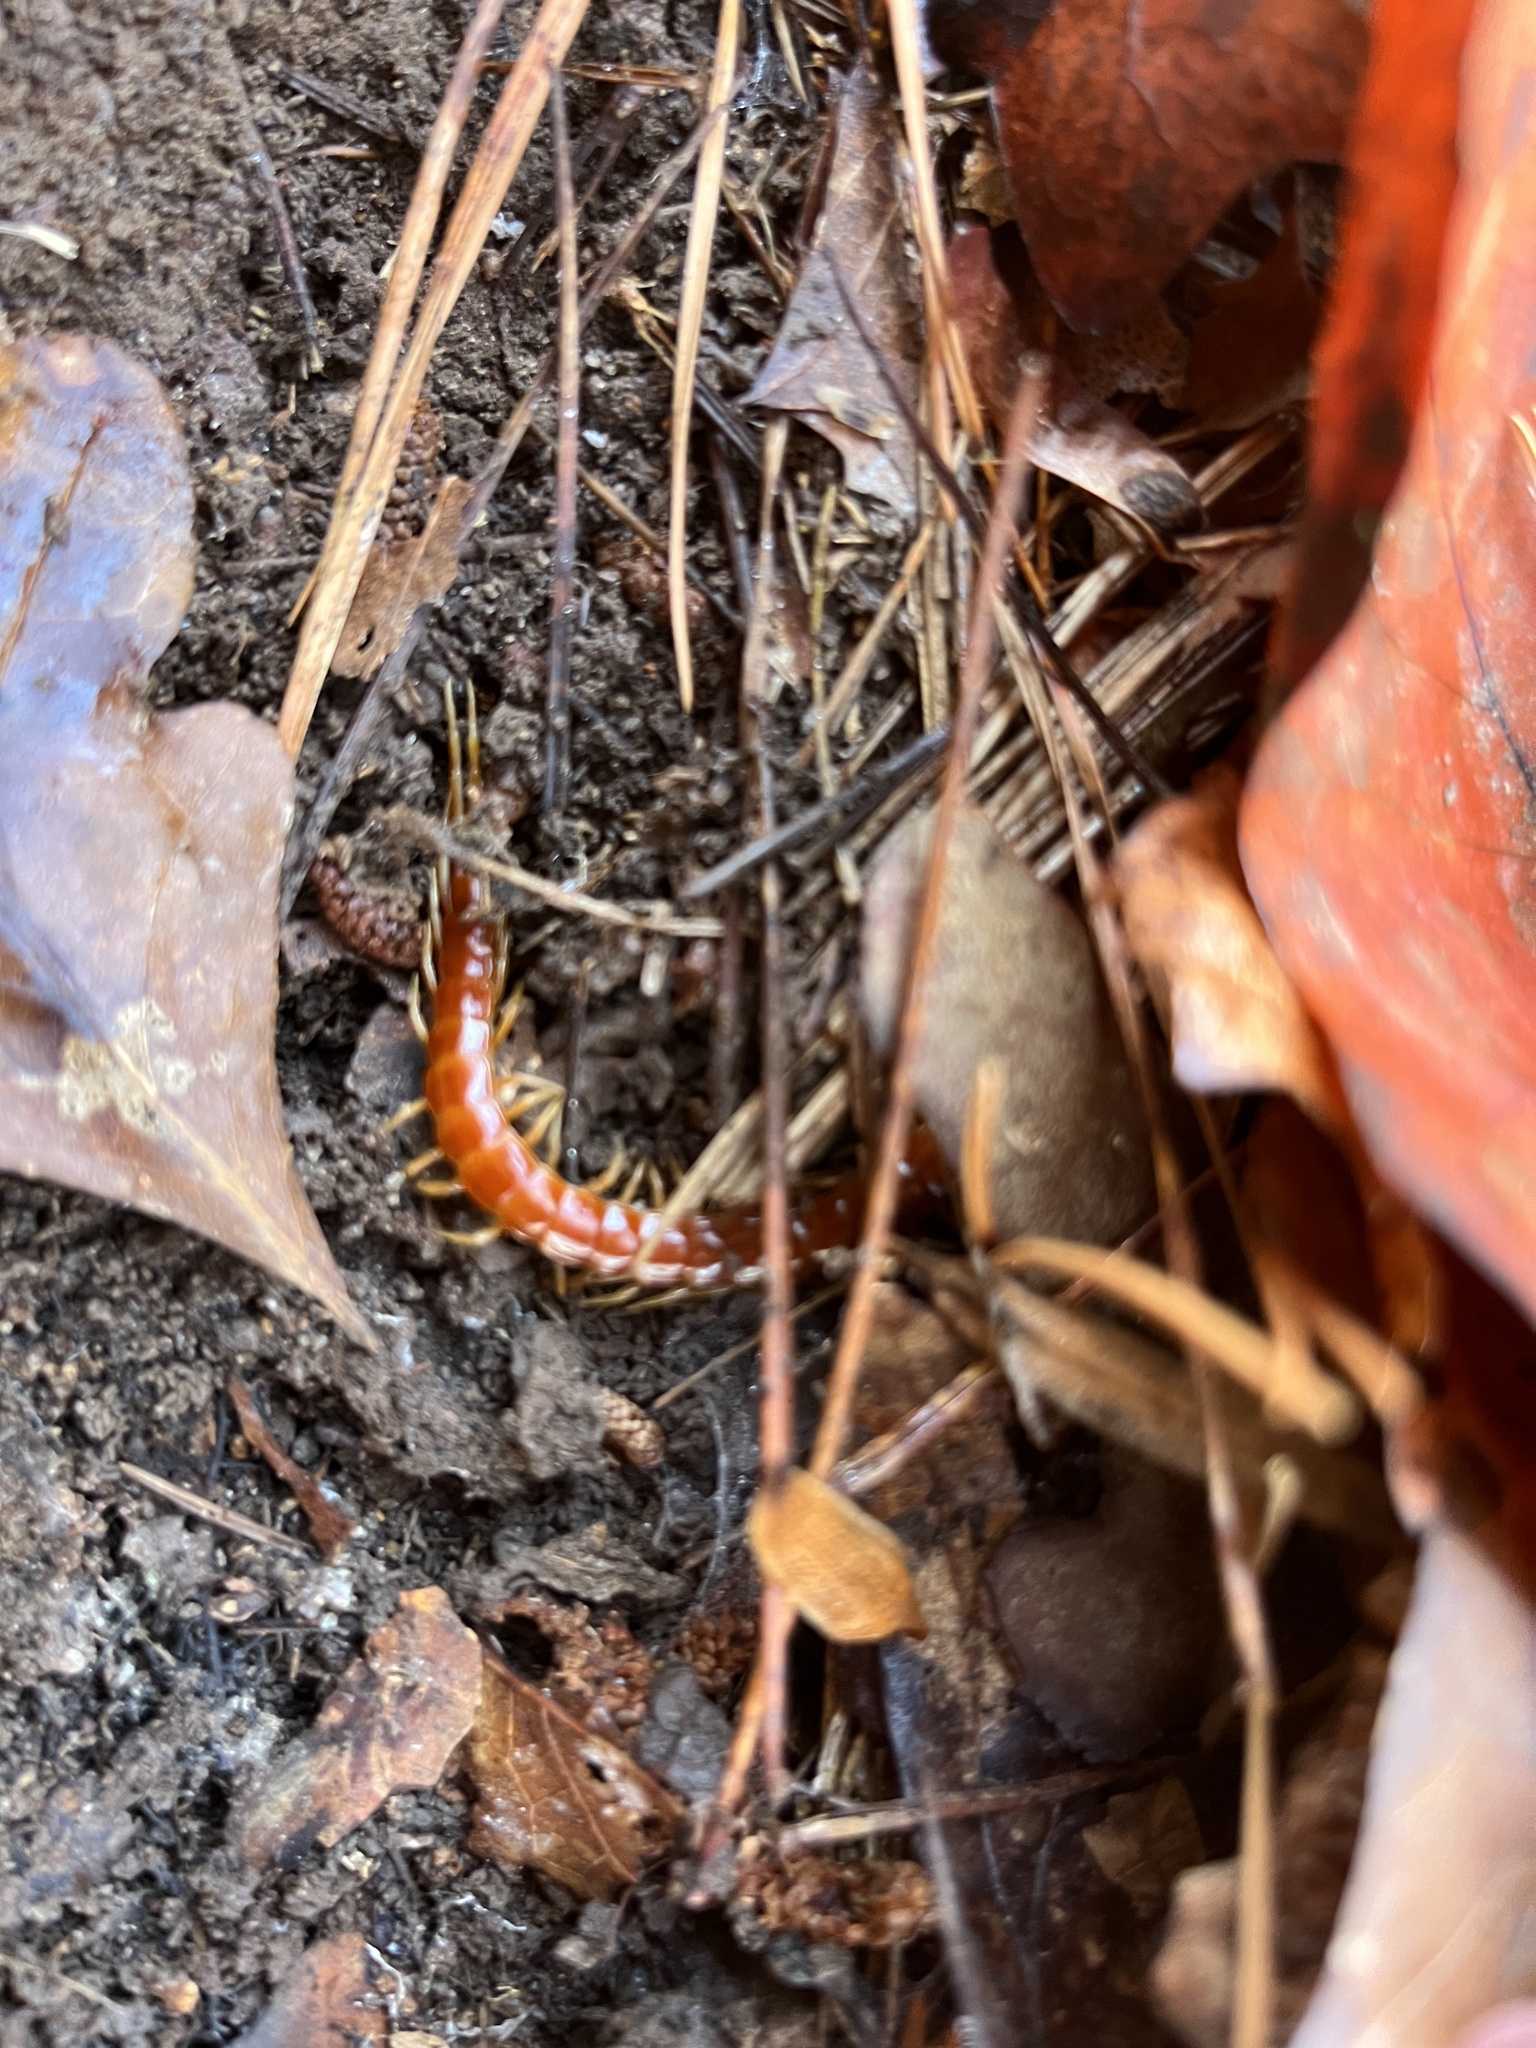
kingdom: Animalia
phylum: Arthropoda
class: Chilopoda
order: Scolopendromorpha
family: Scolopocryptopidae
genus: Scolopocryptops
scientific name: Scolopocryptops sexspinosus
